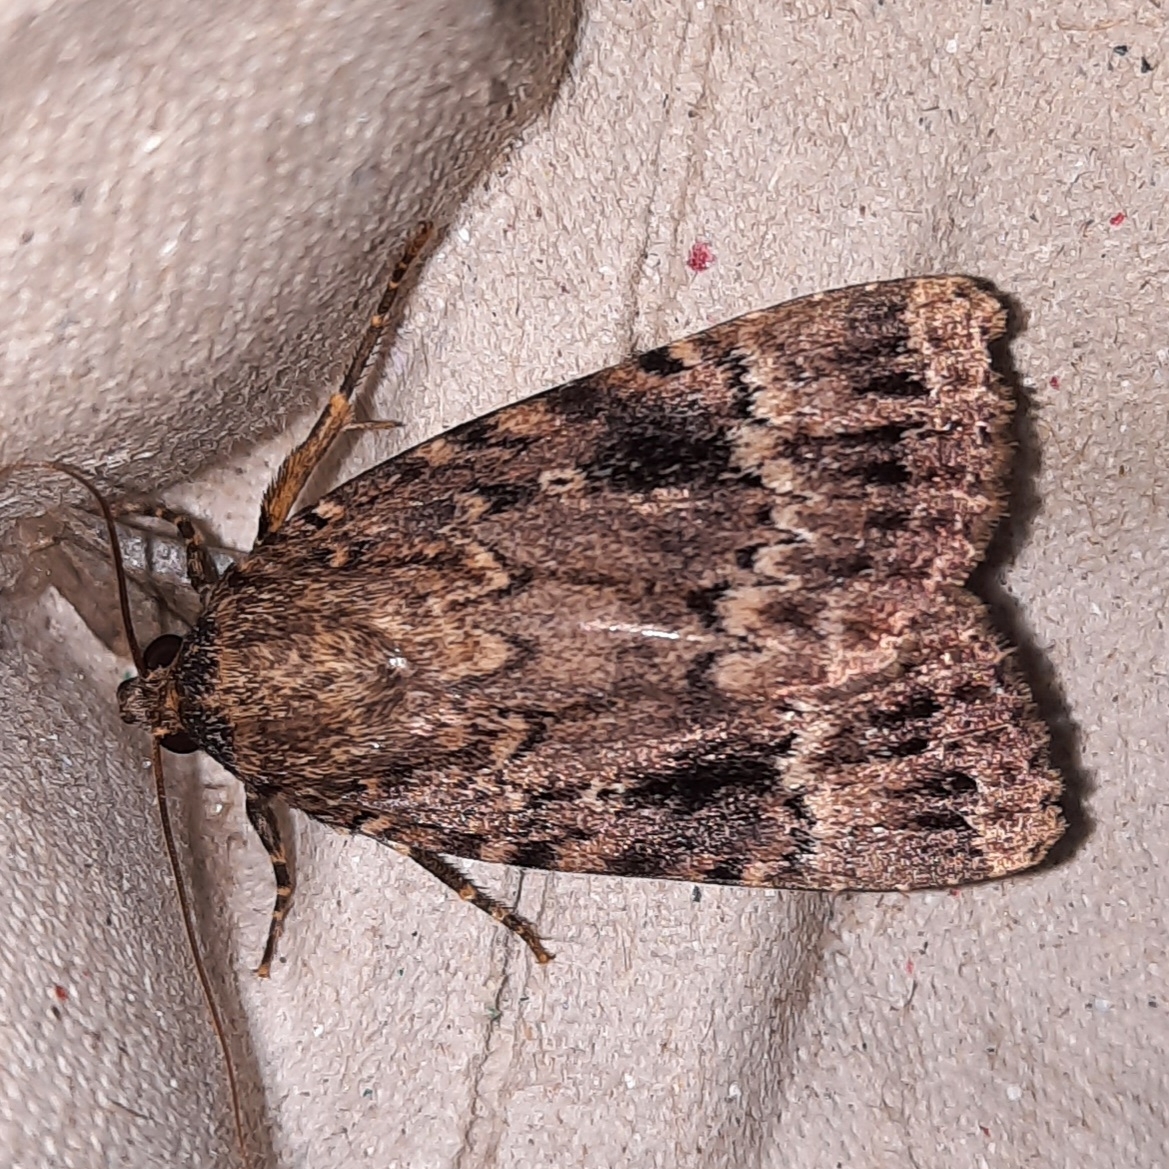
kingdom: Animalia
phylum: Arthropoda
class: Insecta
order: Lepidoptera
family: Noctuidae
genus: Amphipyra
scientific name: Amphipyra berbera
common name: Svensson's copper underwing
